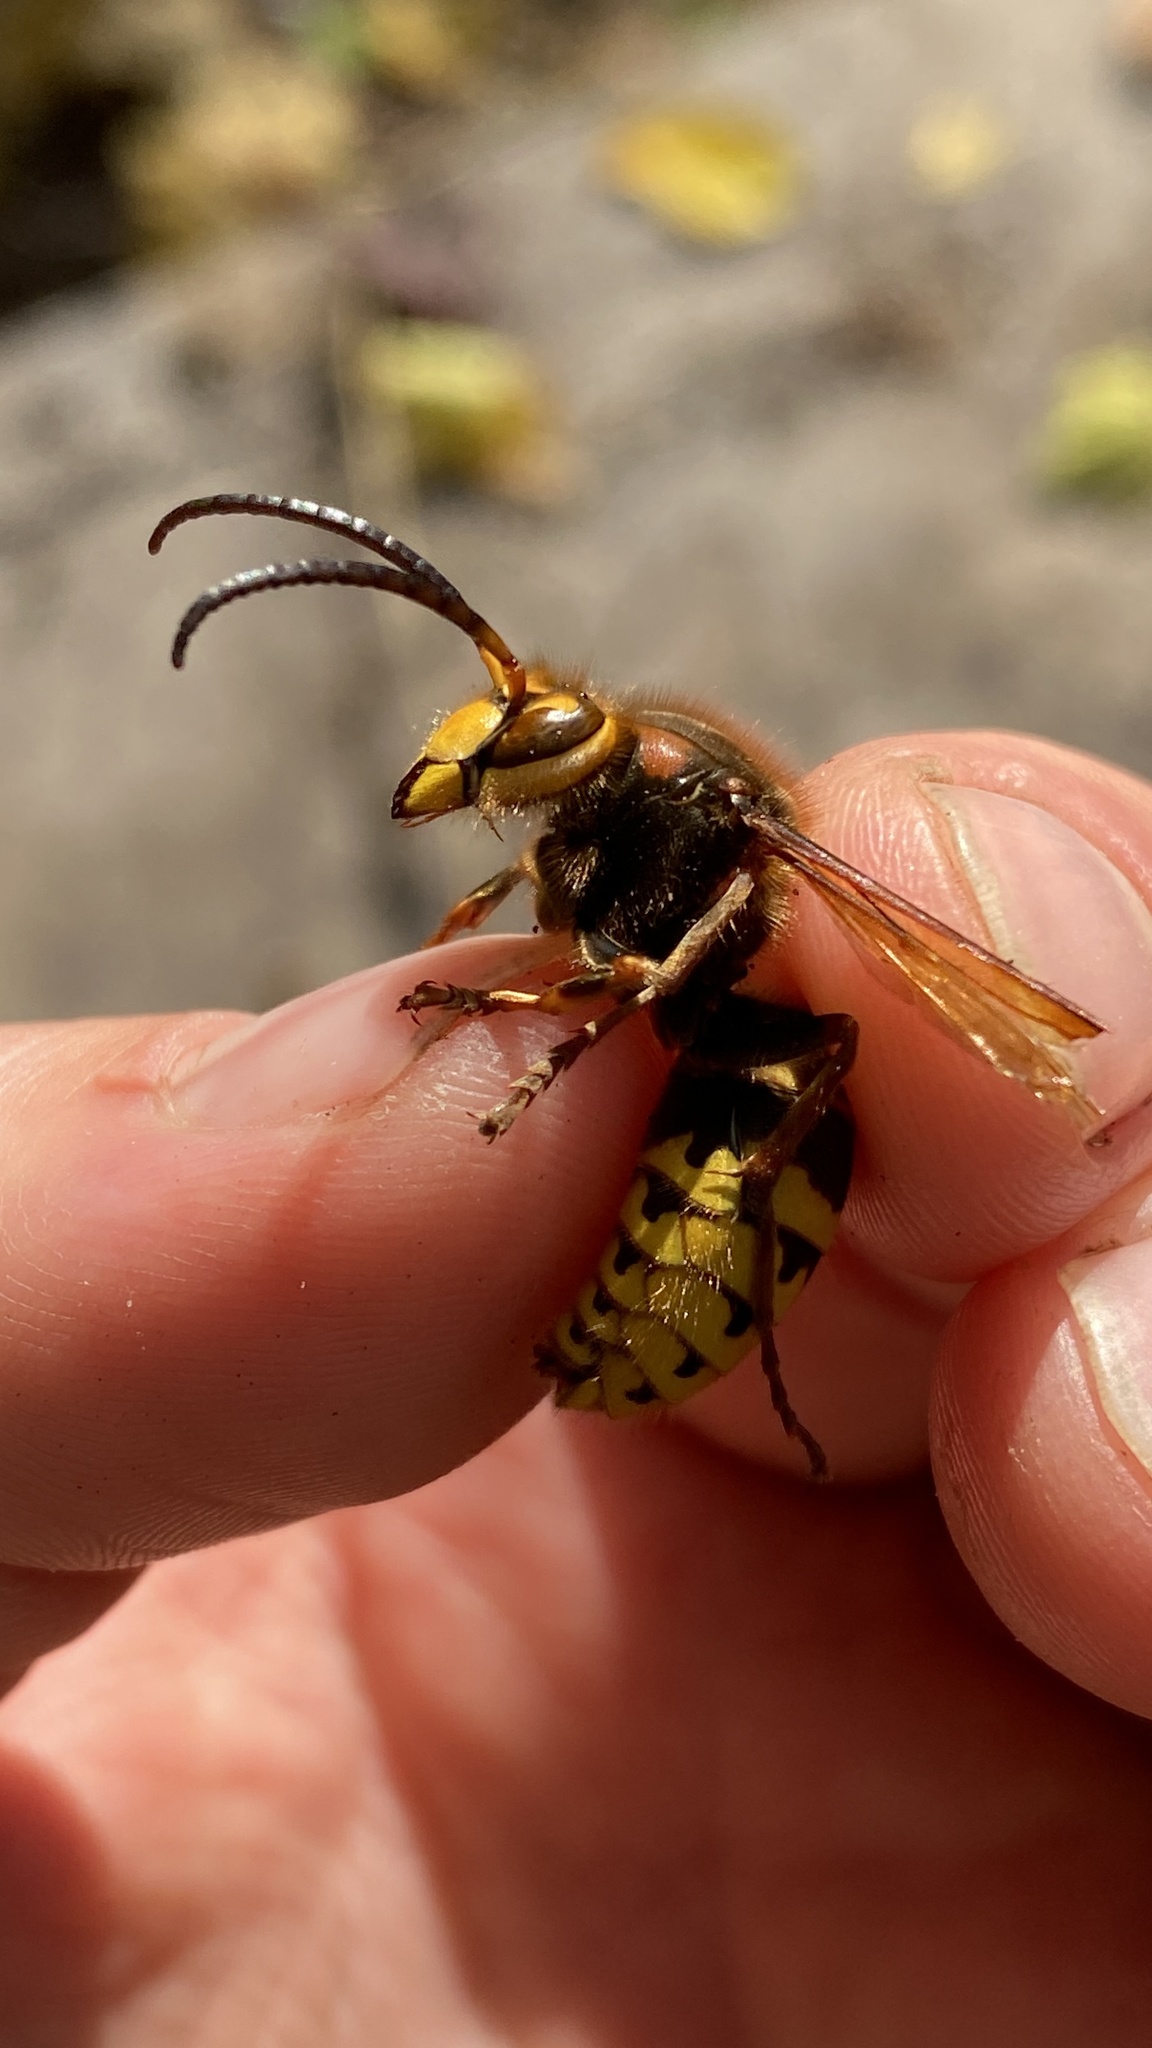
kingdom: Animalia
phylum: Arthropoda
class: Insecta
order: Hymenoptera
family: Vespidae
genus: Vespa
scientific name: Vespa crabro
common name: Hornet
